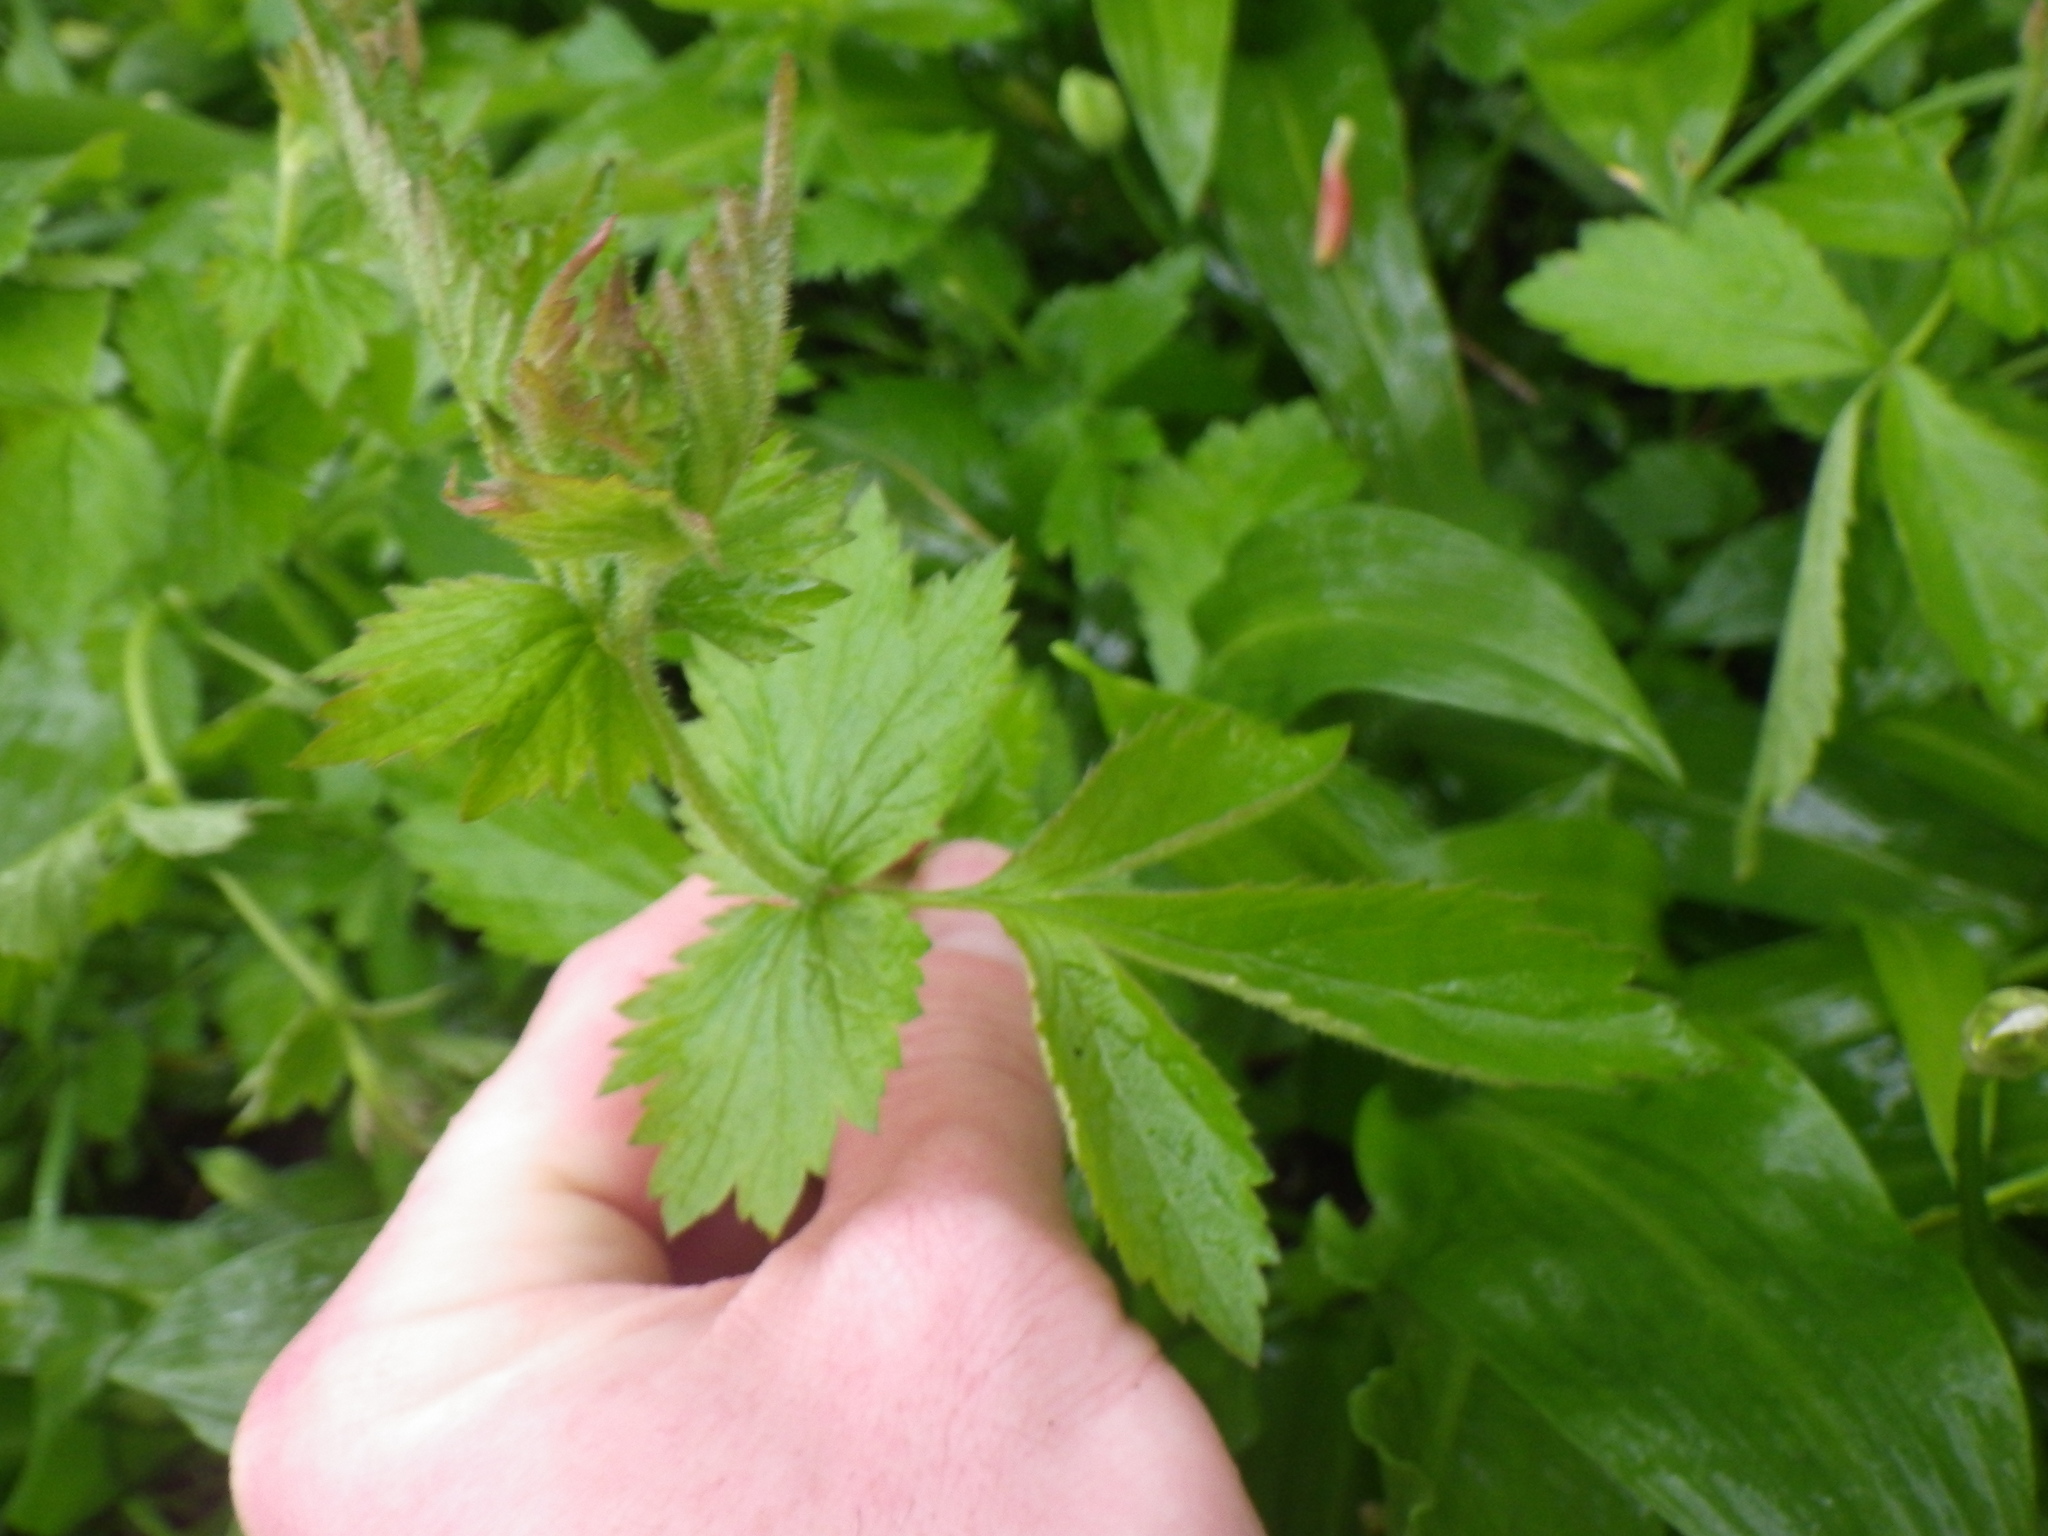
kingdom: Plantae
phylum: Tracheophyta
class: Magnoliopsida
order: Rosales
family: Rosaceae
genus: Geum
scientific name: Geum urbanum
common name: Wood avens
